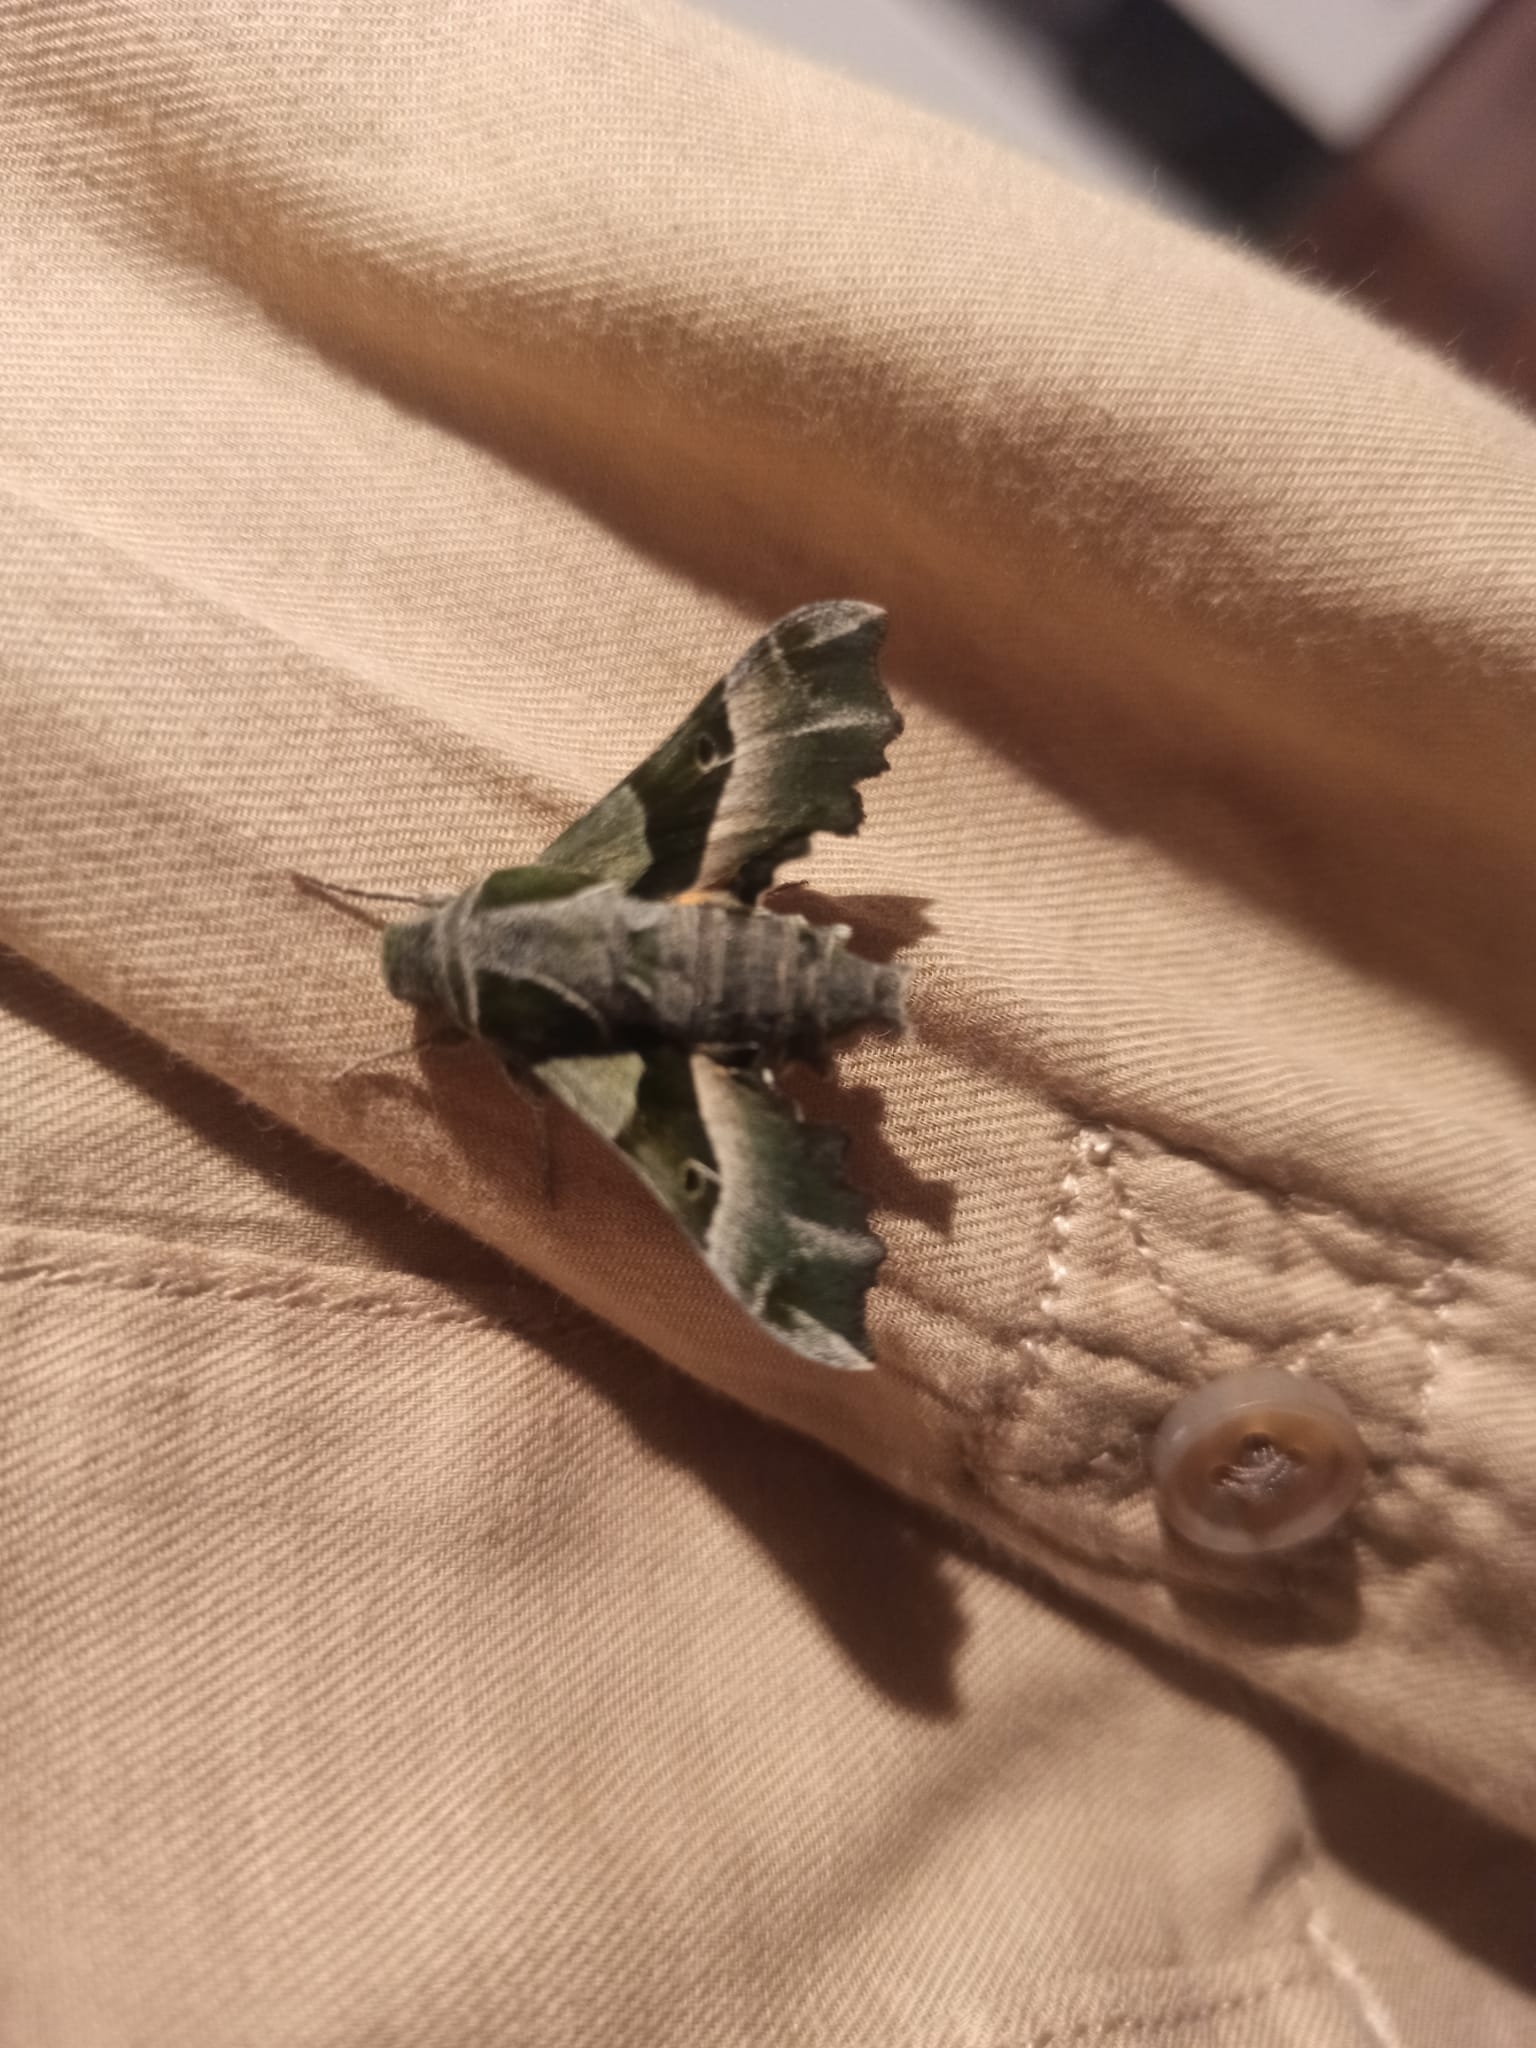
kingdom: Animalia
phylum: Arthropoda
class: Insecta
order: Lepidoptera
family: Sphingidae
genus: Proserpinus
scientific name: Proserpinus proserpina
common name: Willowherb hawkmoth
